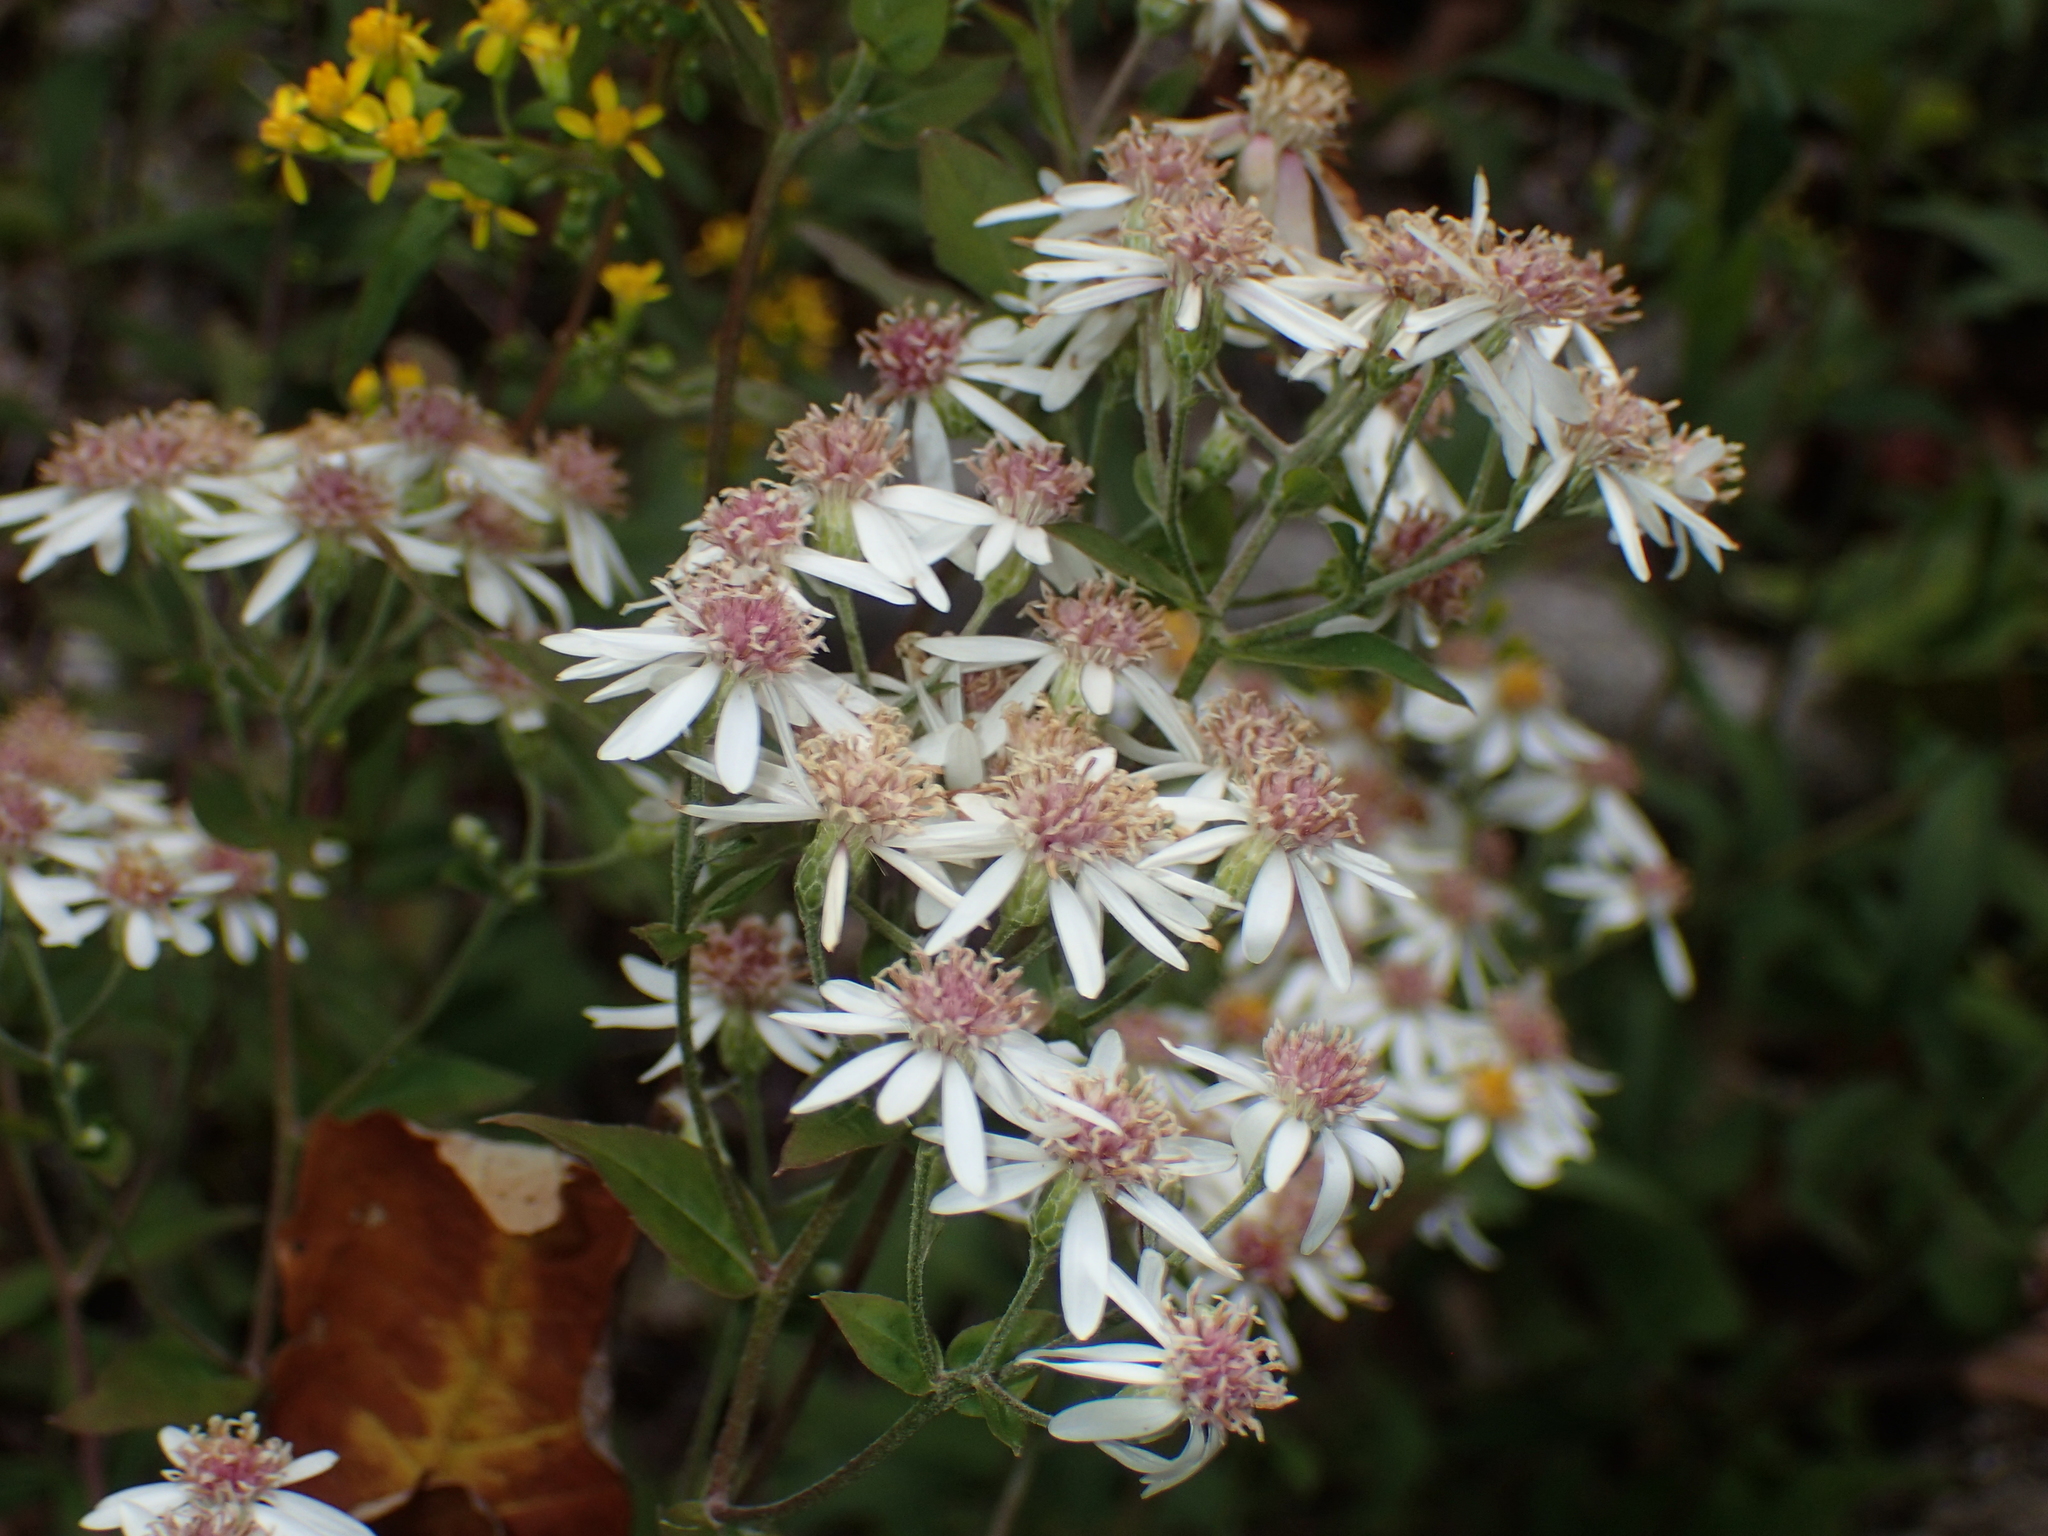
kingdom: Plantae
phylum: Tracheophyta
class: Magnoliopsida
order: Asterales
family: Asteraceae
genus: Eurybia
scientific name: Eurybia divaricata
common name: White wood aster
